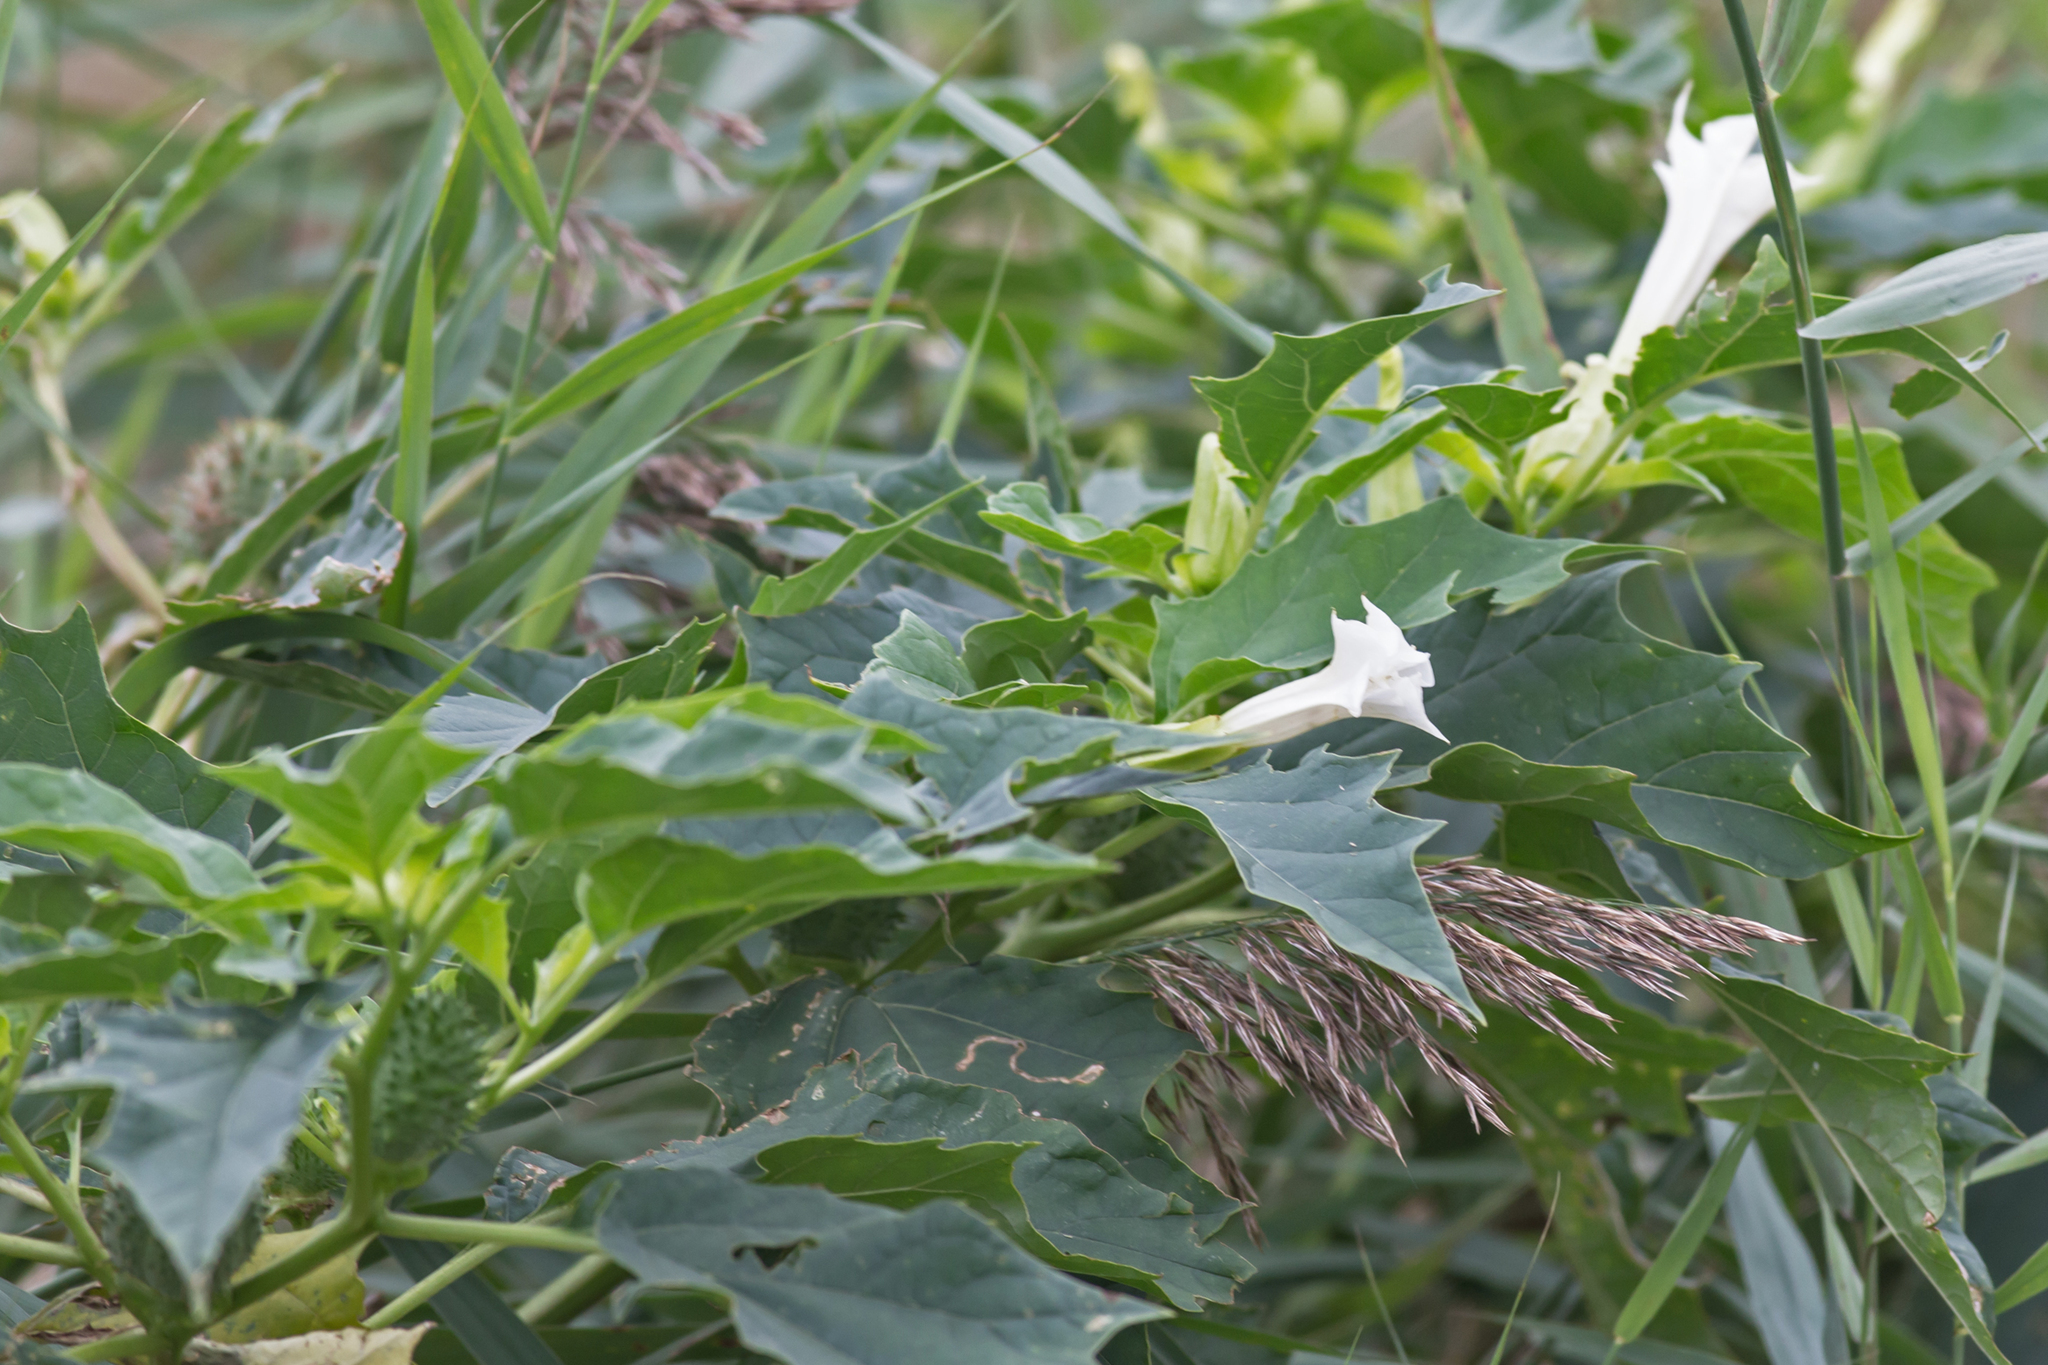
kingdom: Plantae
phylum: Tracheophyta
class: Magnoliopsida
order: Solanales
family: Solanaceae
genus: Datura
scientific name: Datura stramonium
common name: Thorn-apple
